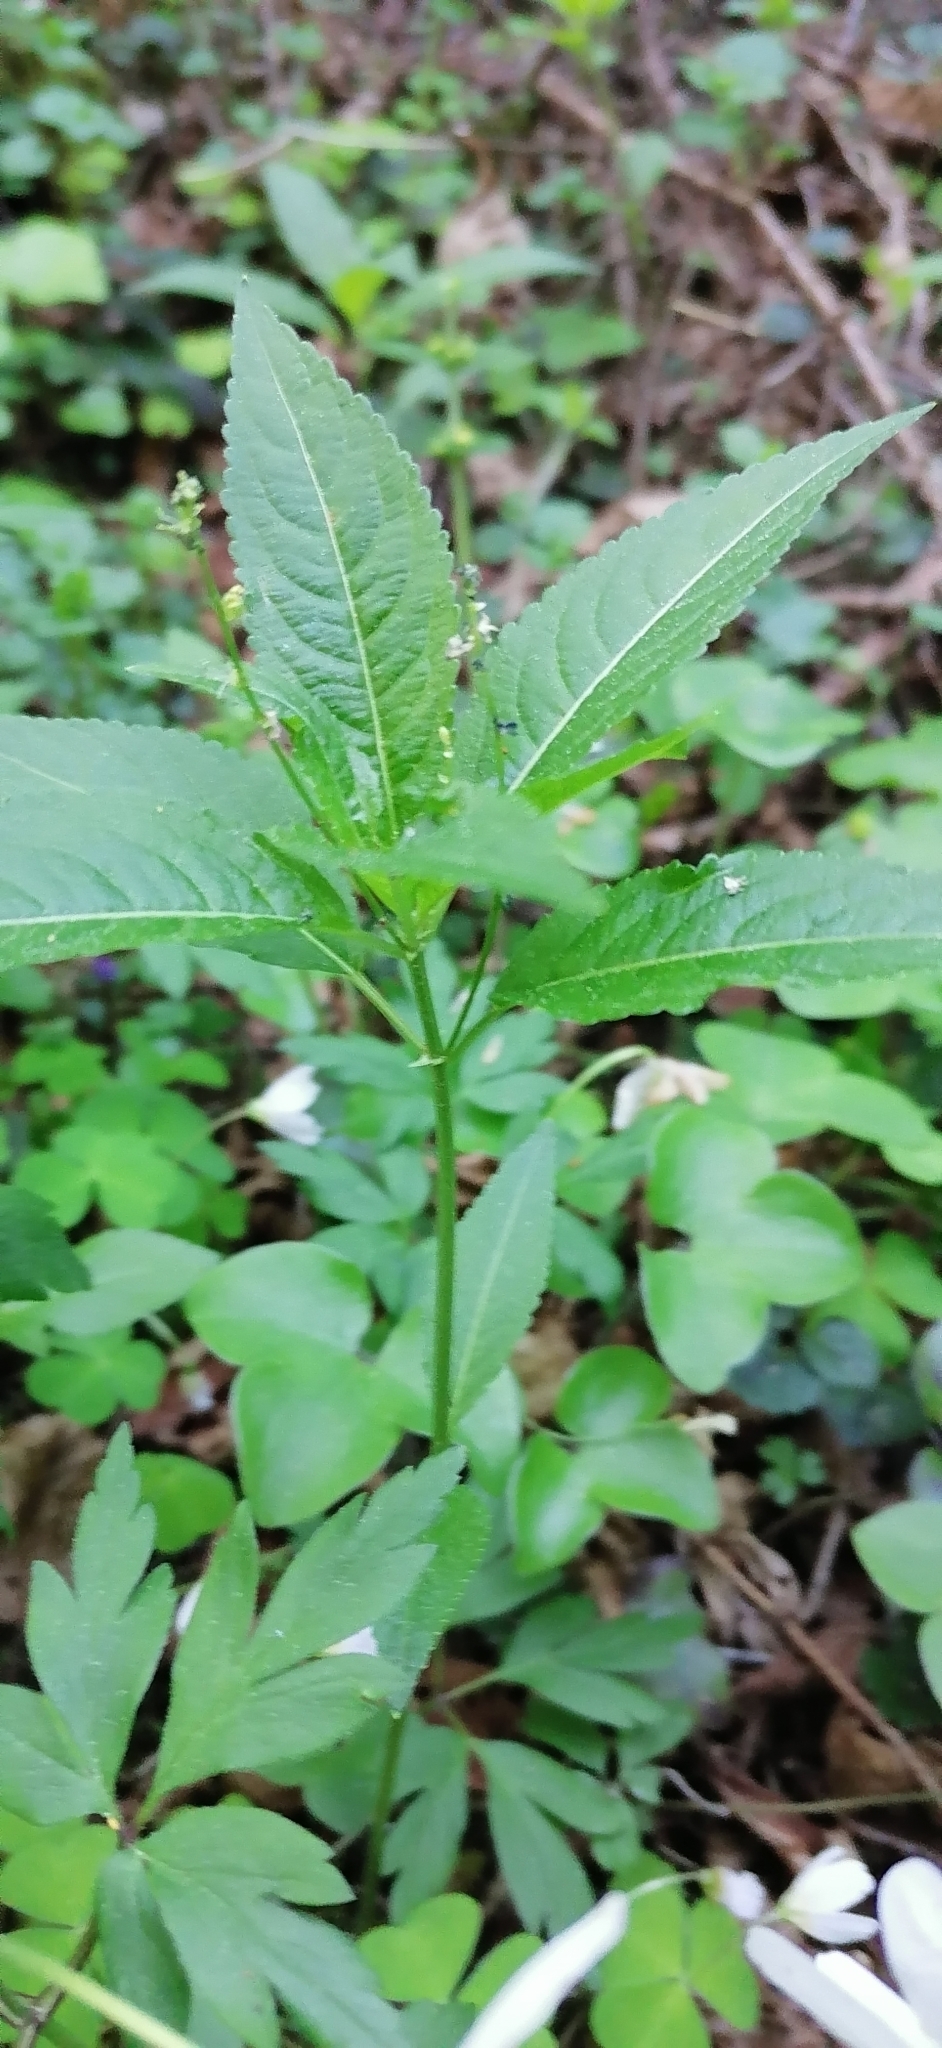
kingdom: Plantae
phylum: Tracheophyta
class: Magnoliopsida
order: Malpighiales
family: Euphorbiaceae
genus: Mercurialis
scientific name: Mercurialis perennis
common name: Dog mercury
